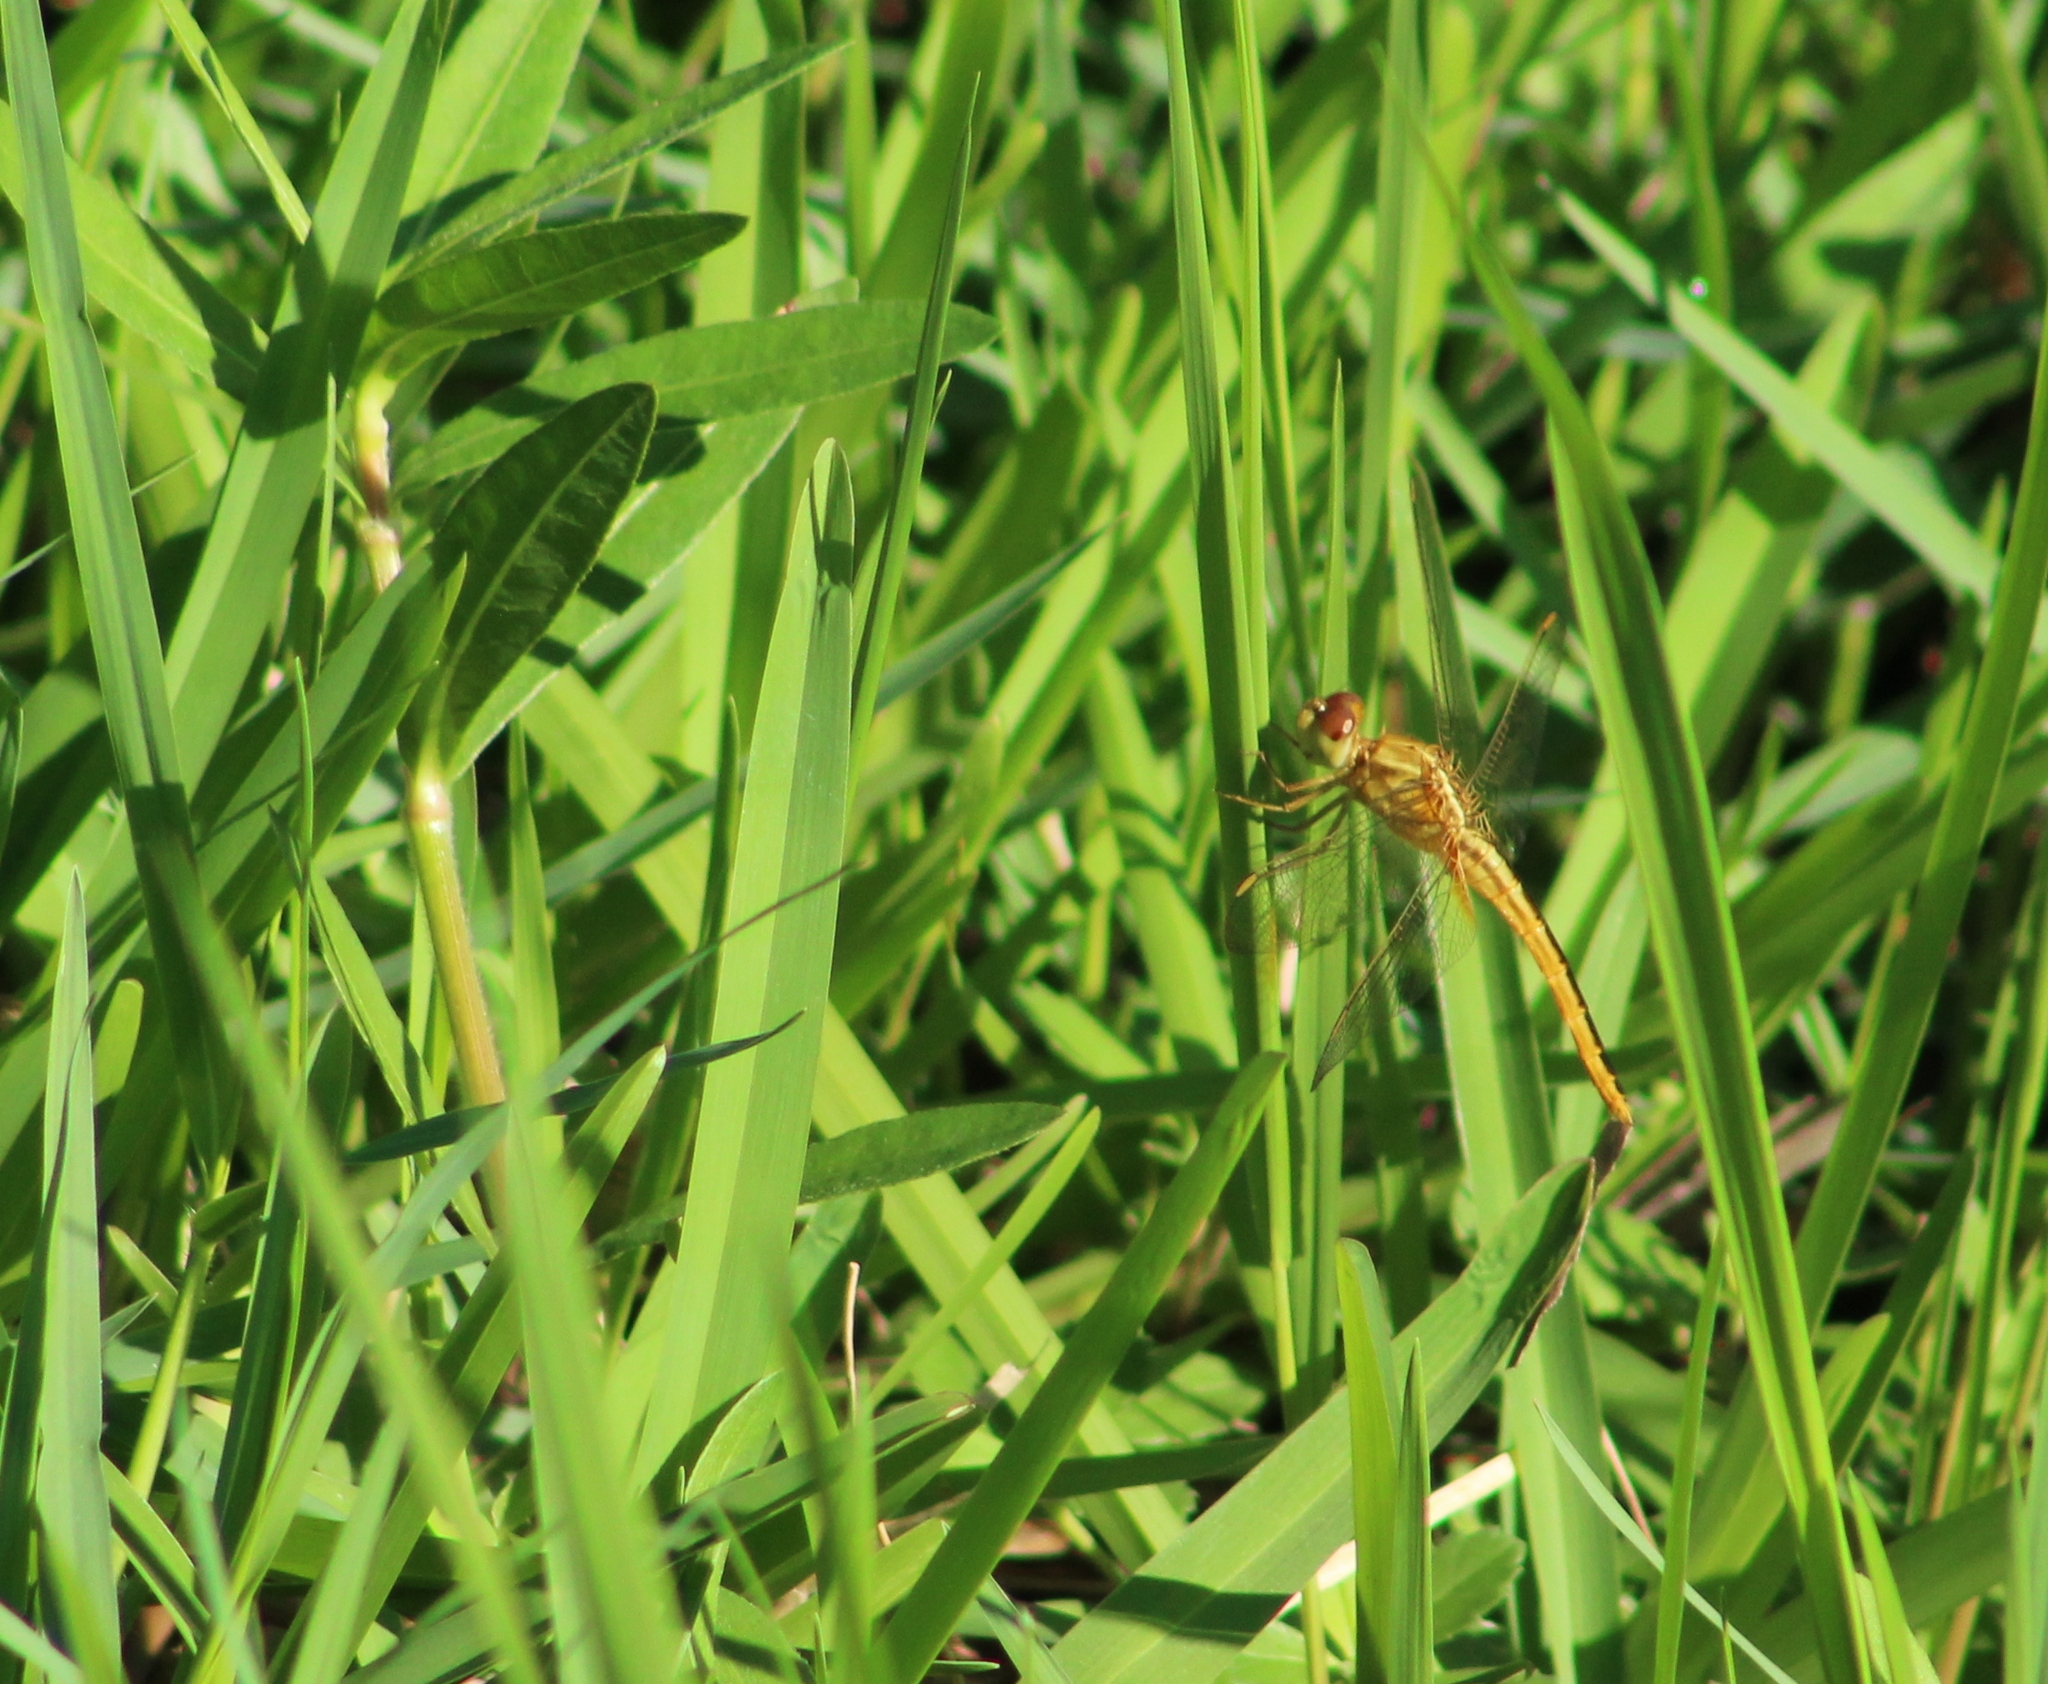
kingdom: Animalia
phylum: Arthropoda
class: Insecta
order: Odonata
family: Libellulidae
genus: Crocothemis
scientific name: Crocothemis servilia
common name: Scarlet skimmer
